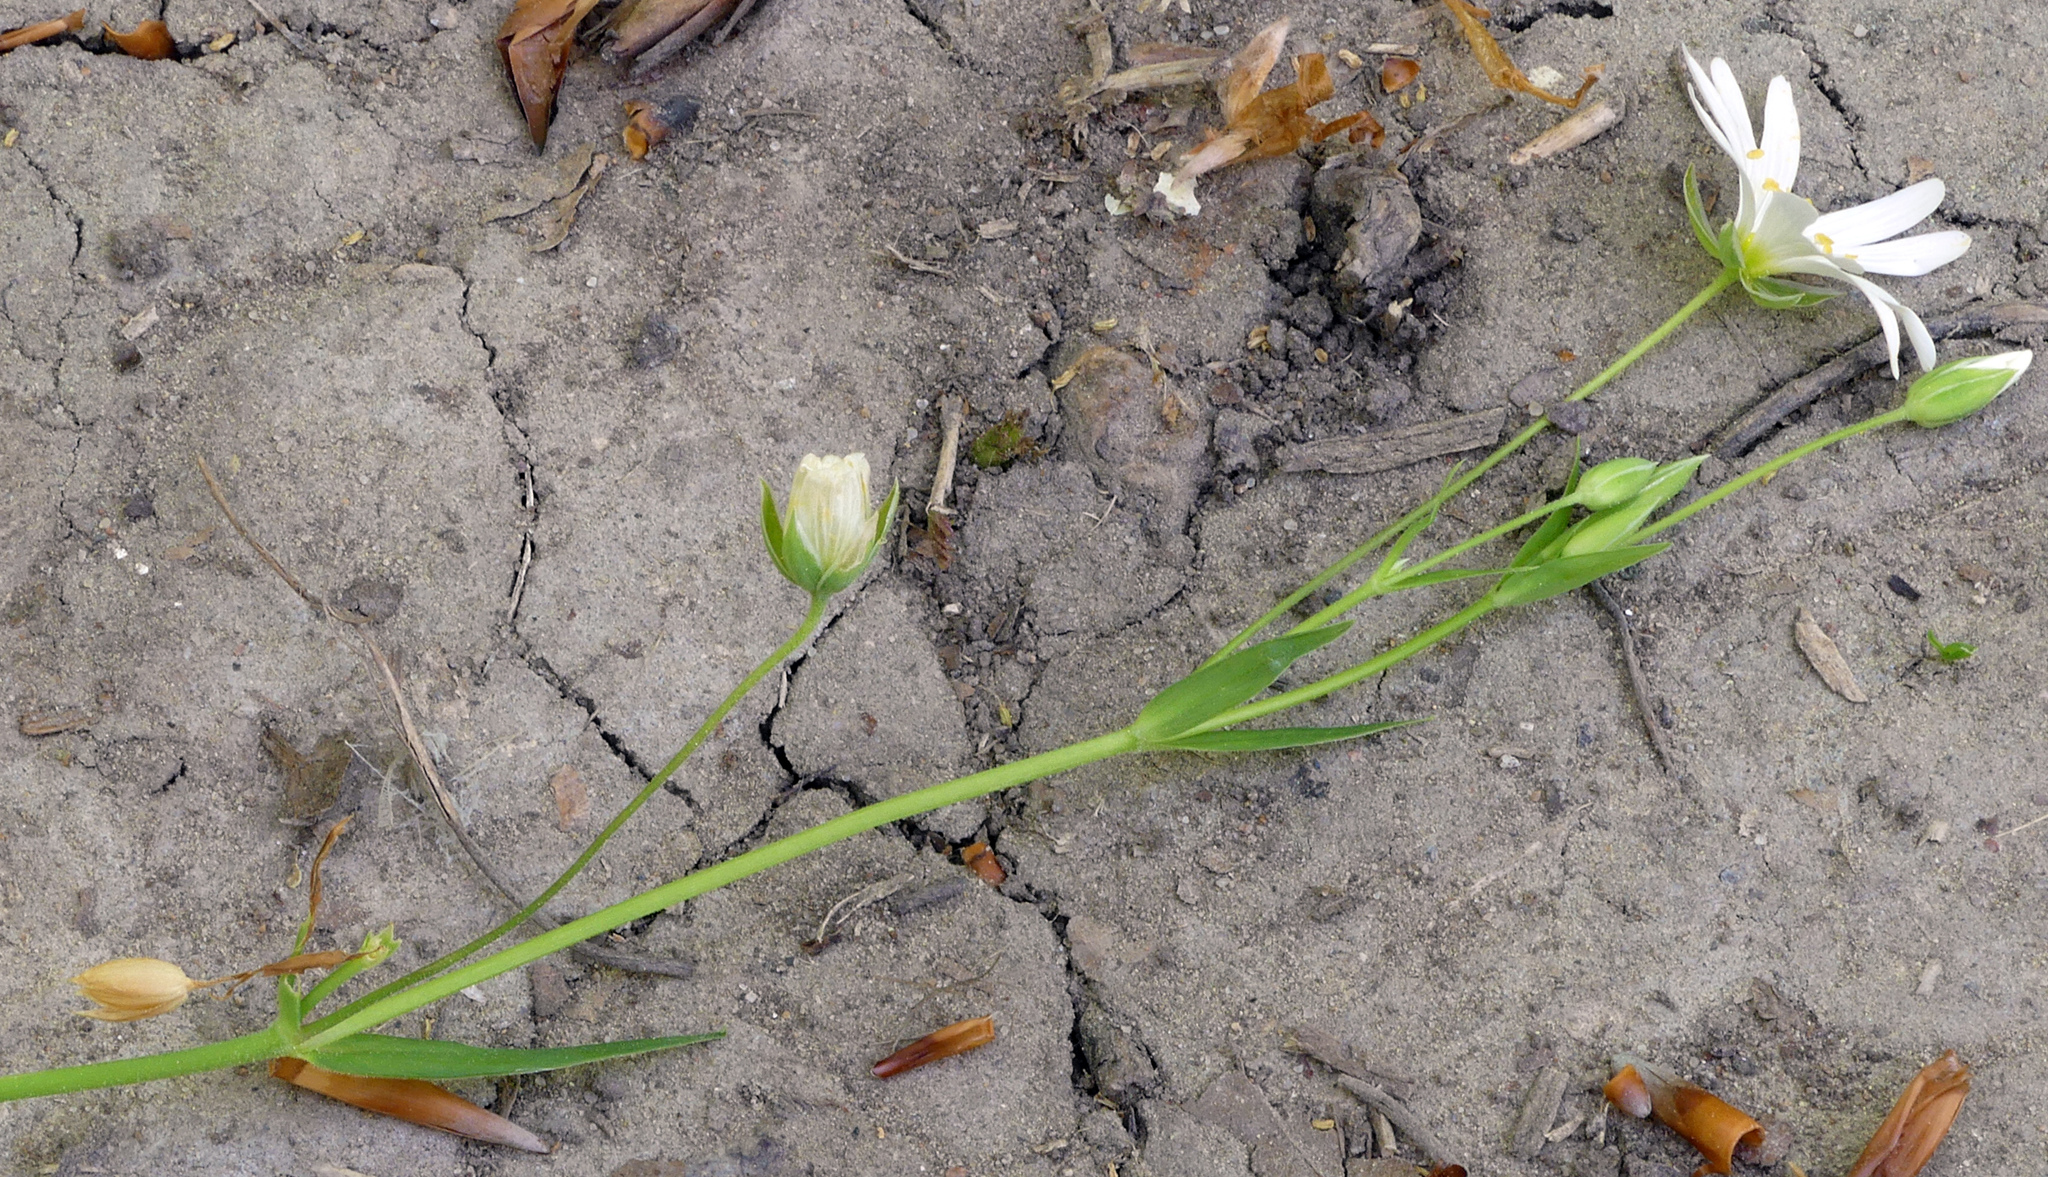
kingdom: Plantae
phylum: Tracheophyta
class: Magnoliopsida
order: Caryophyllales
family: Caryophyllaceae
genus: Rabelera
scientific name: Rabelera holostea
